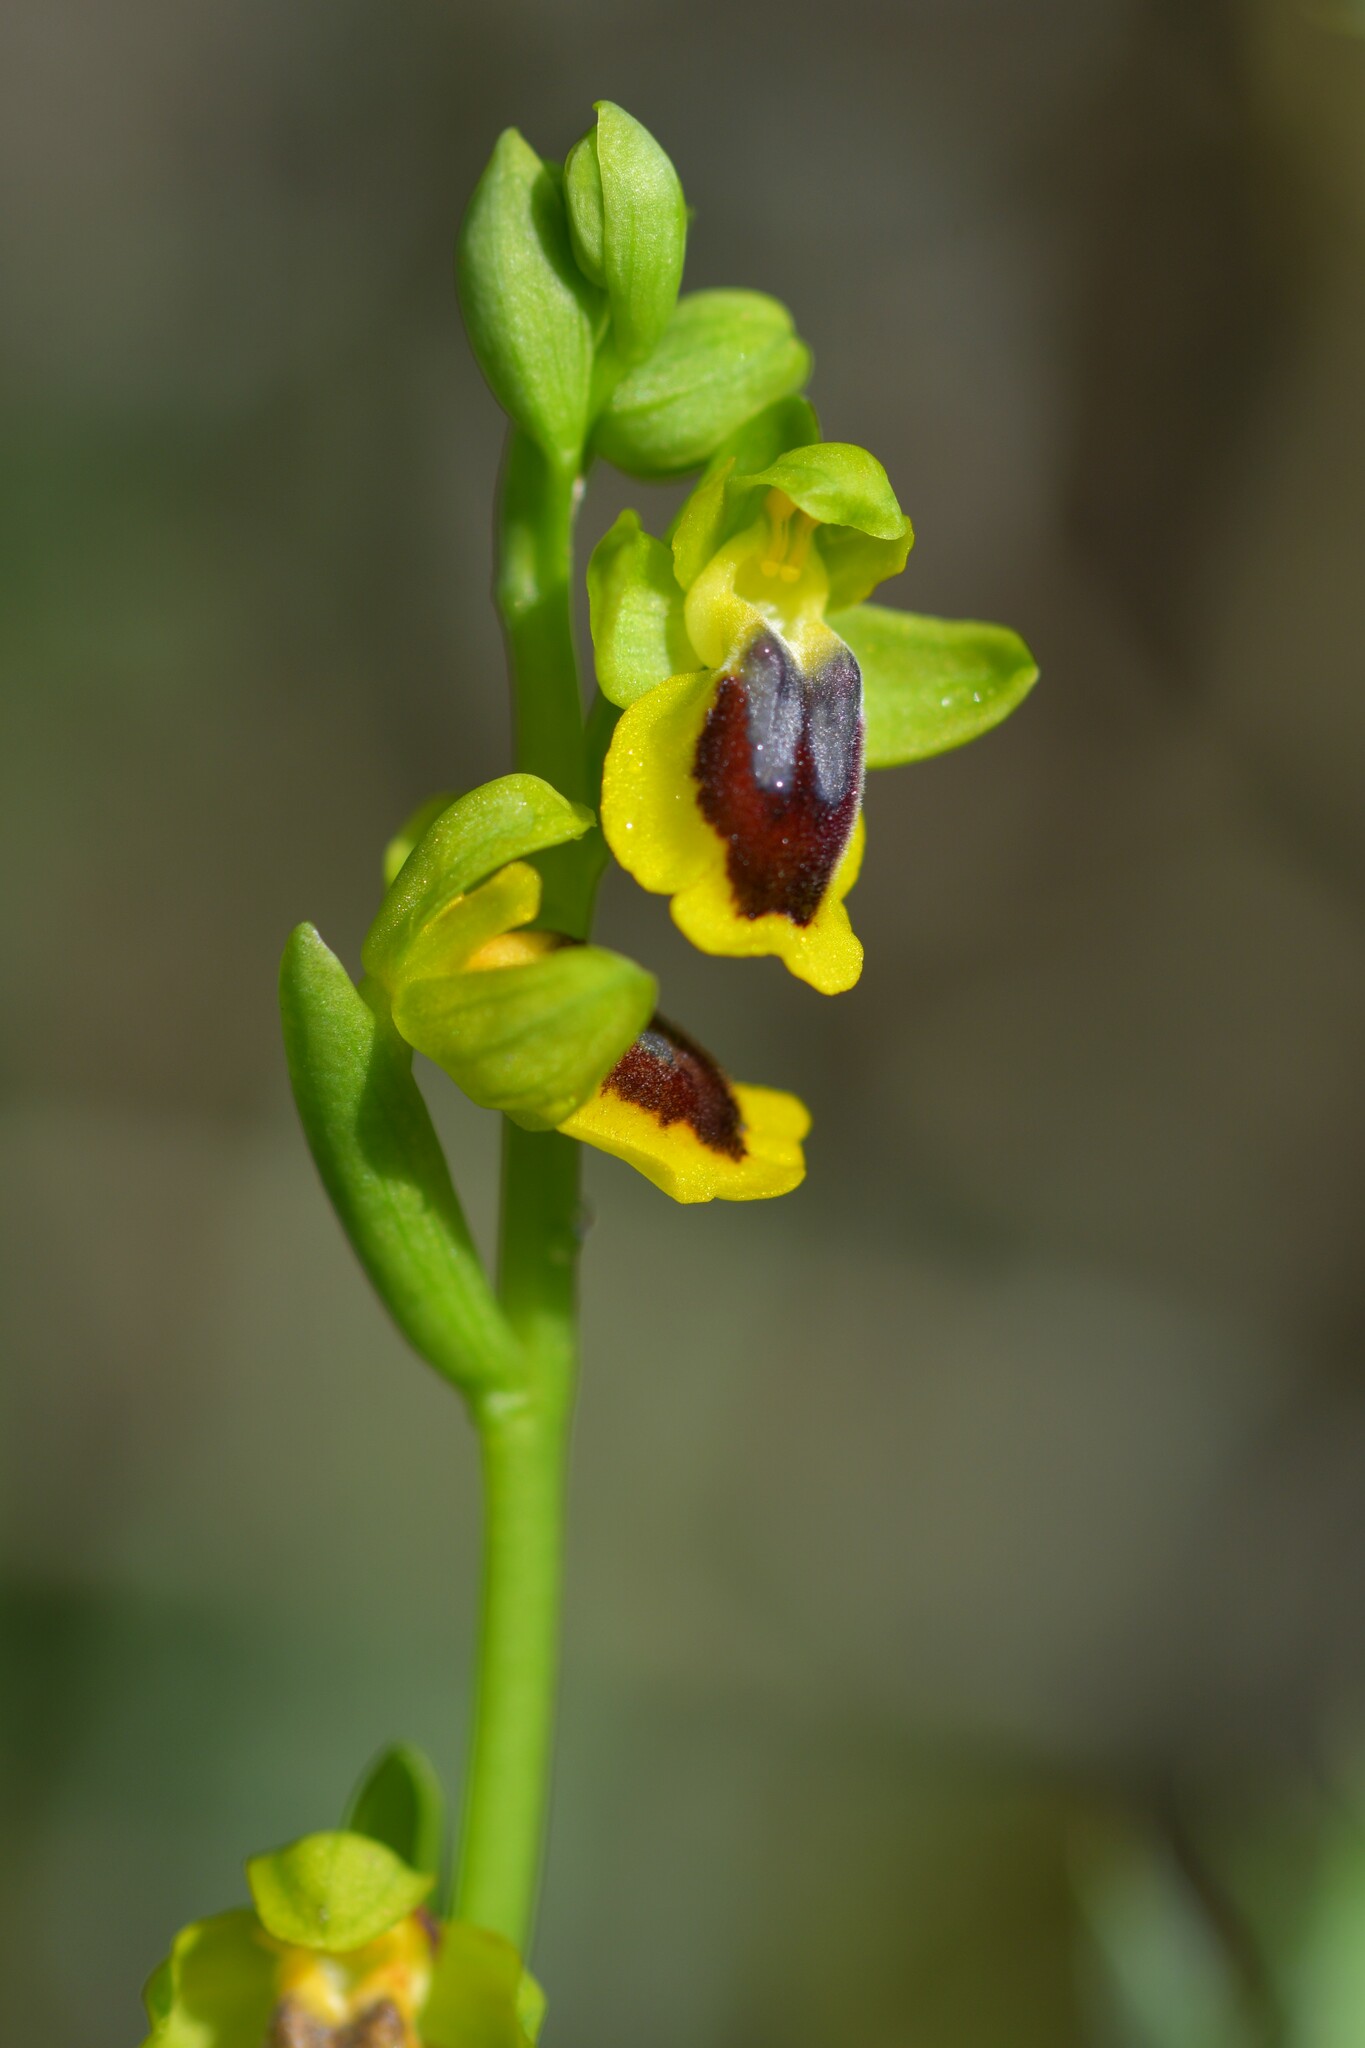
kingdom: Plantae
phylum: Tracheophyta
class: Liliopsida
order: Asparagales
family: Orchidaceae
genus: Ophrys
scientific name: Ophrys lutea
